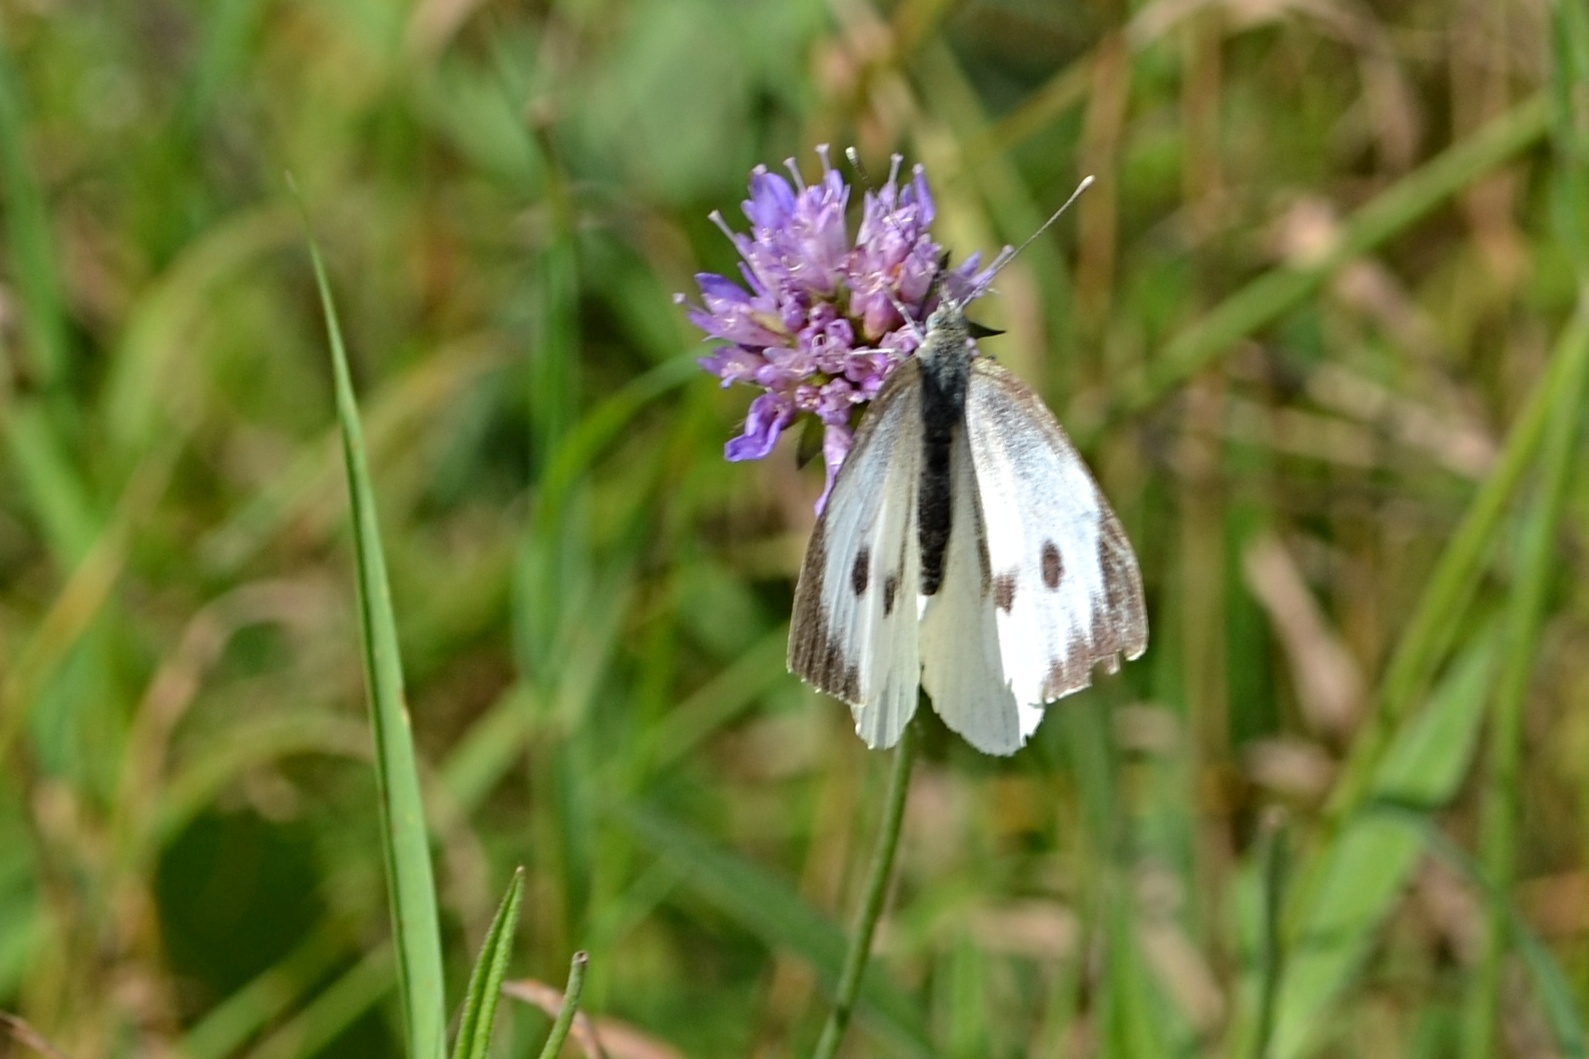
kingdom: Animalia
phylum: Arthropoda
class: Insecta
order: Lepidoptera
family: Pieridae
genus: Pieris
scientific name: Pieris brassicae
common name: Large white
